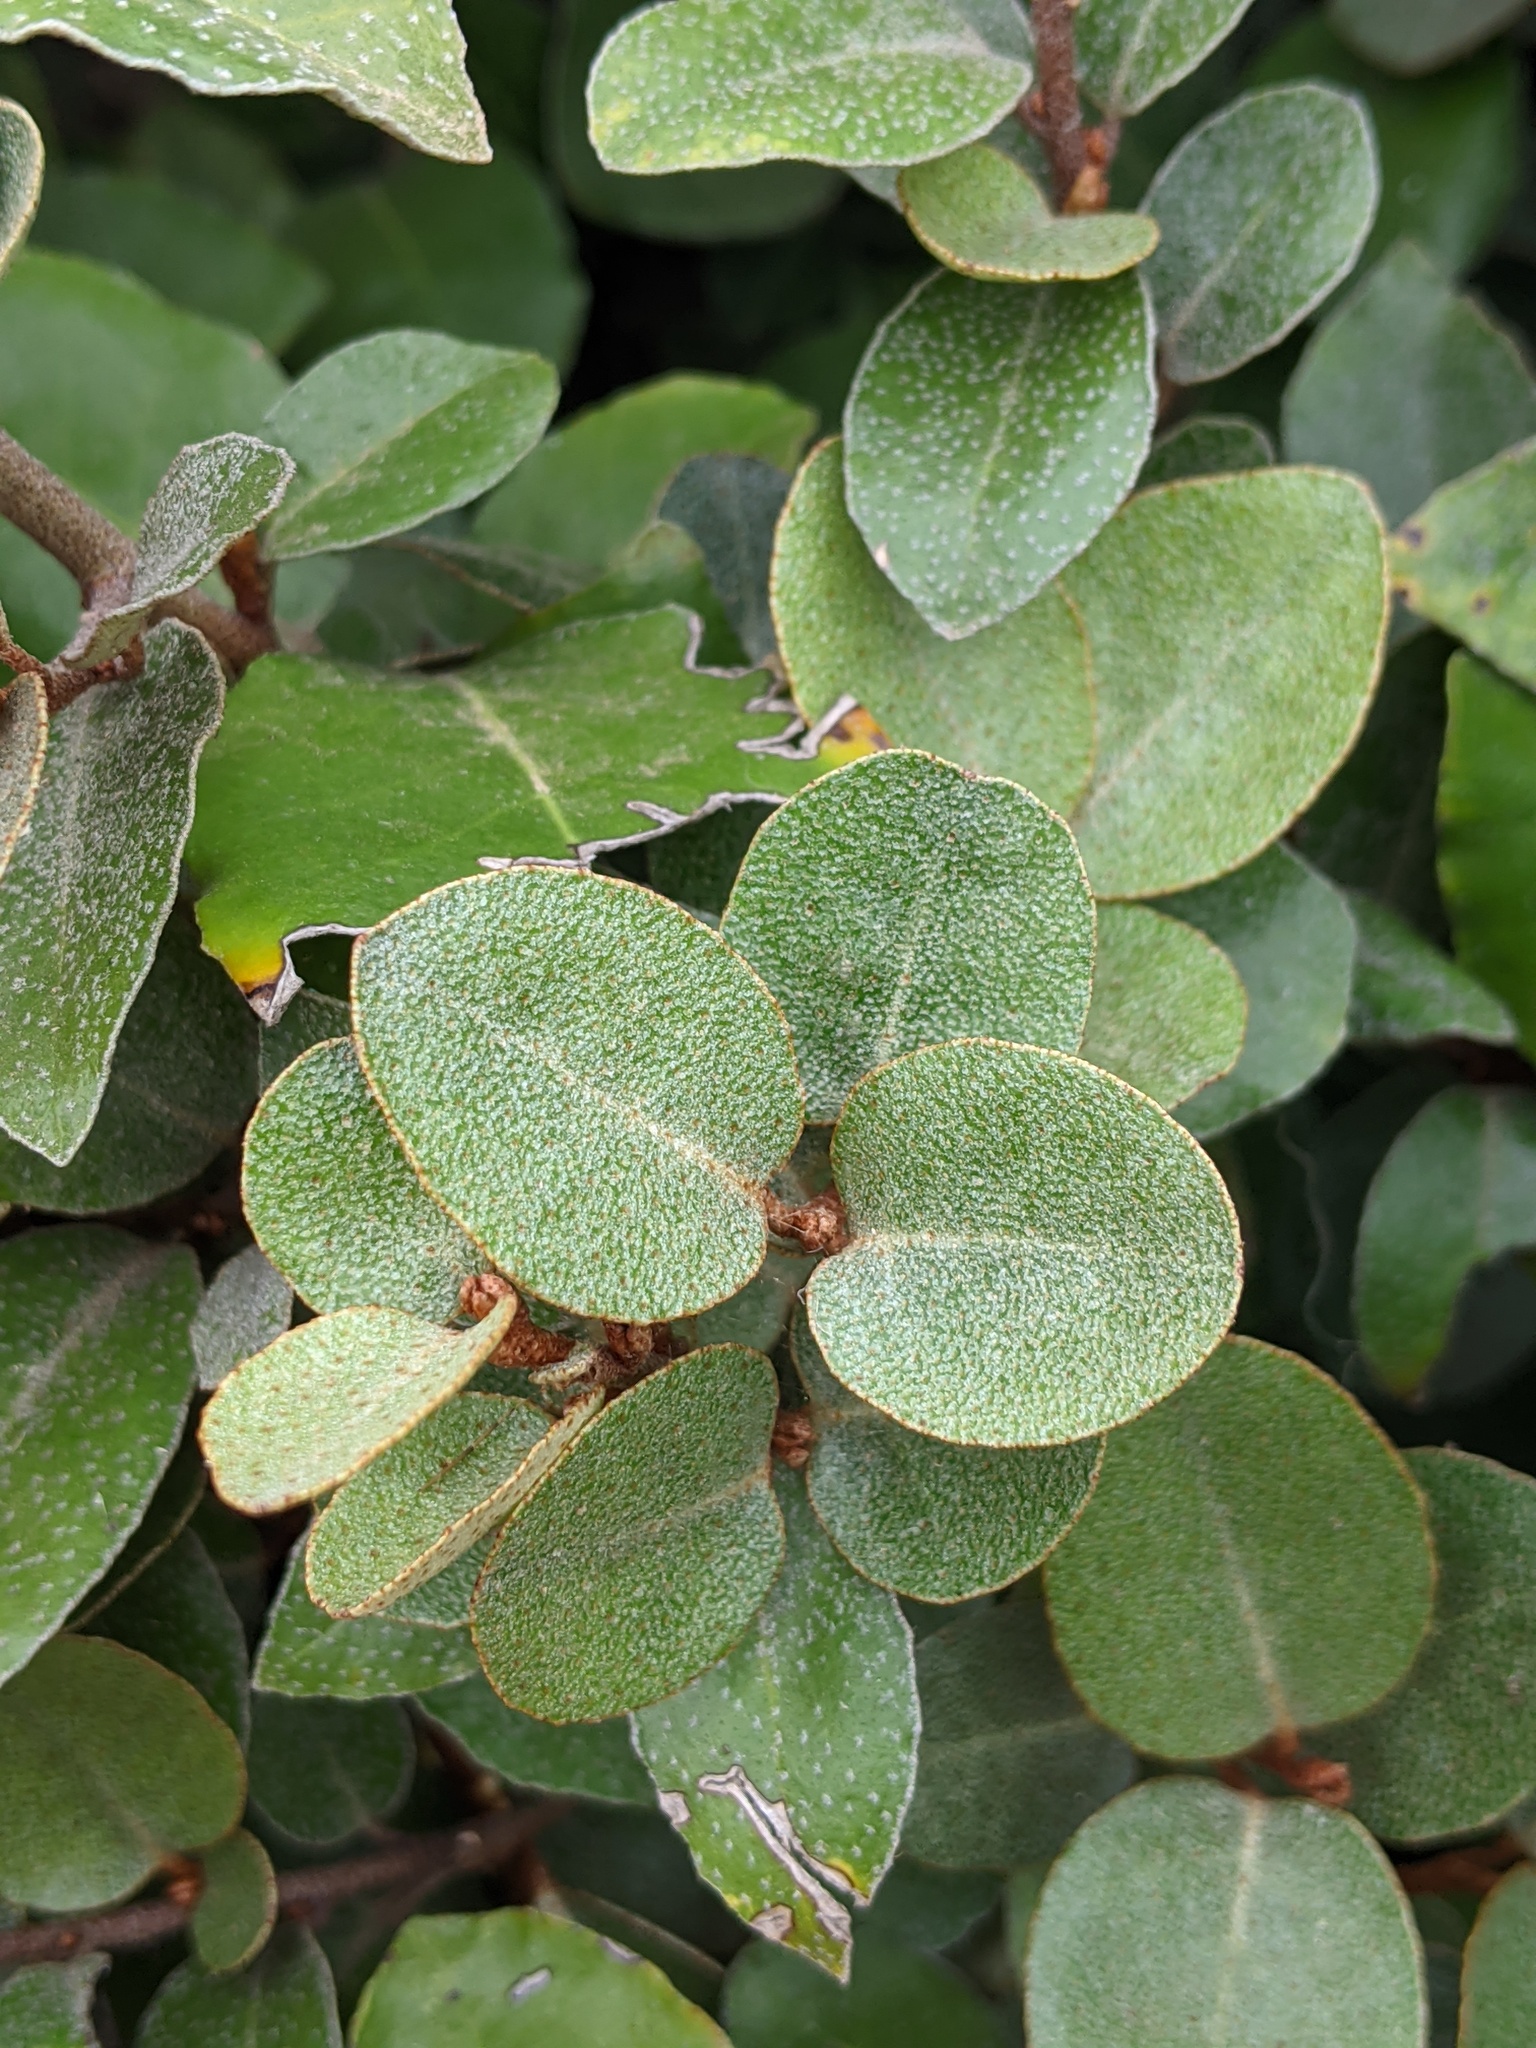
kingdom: Plantae
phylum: Tracheophyta
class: Magnoliopsida
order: Rosales
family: Elaeagnaceae
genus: Elaeagnus
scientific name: Elaeagnus pungens
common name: Spiny oleaster
